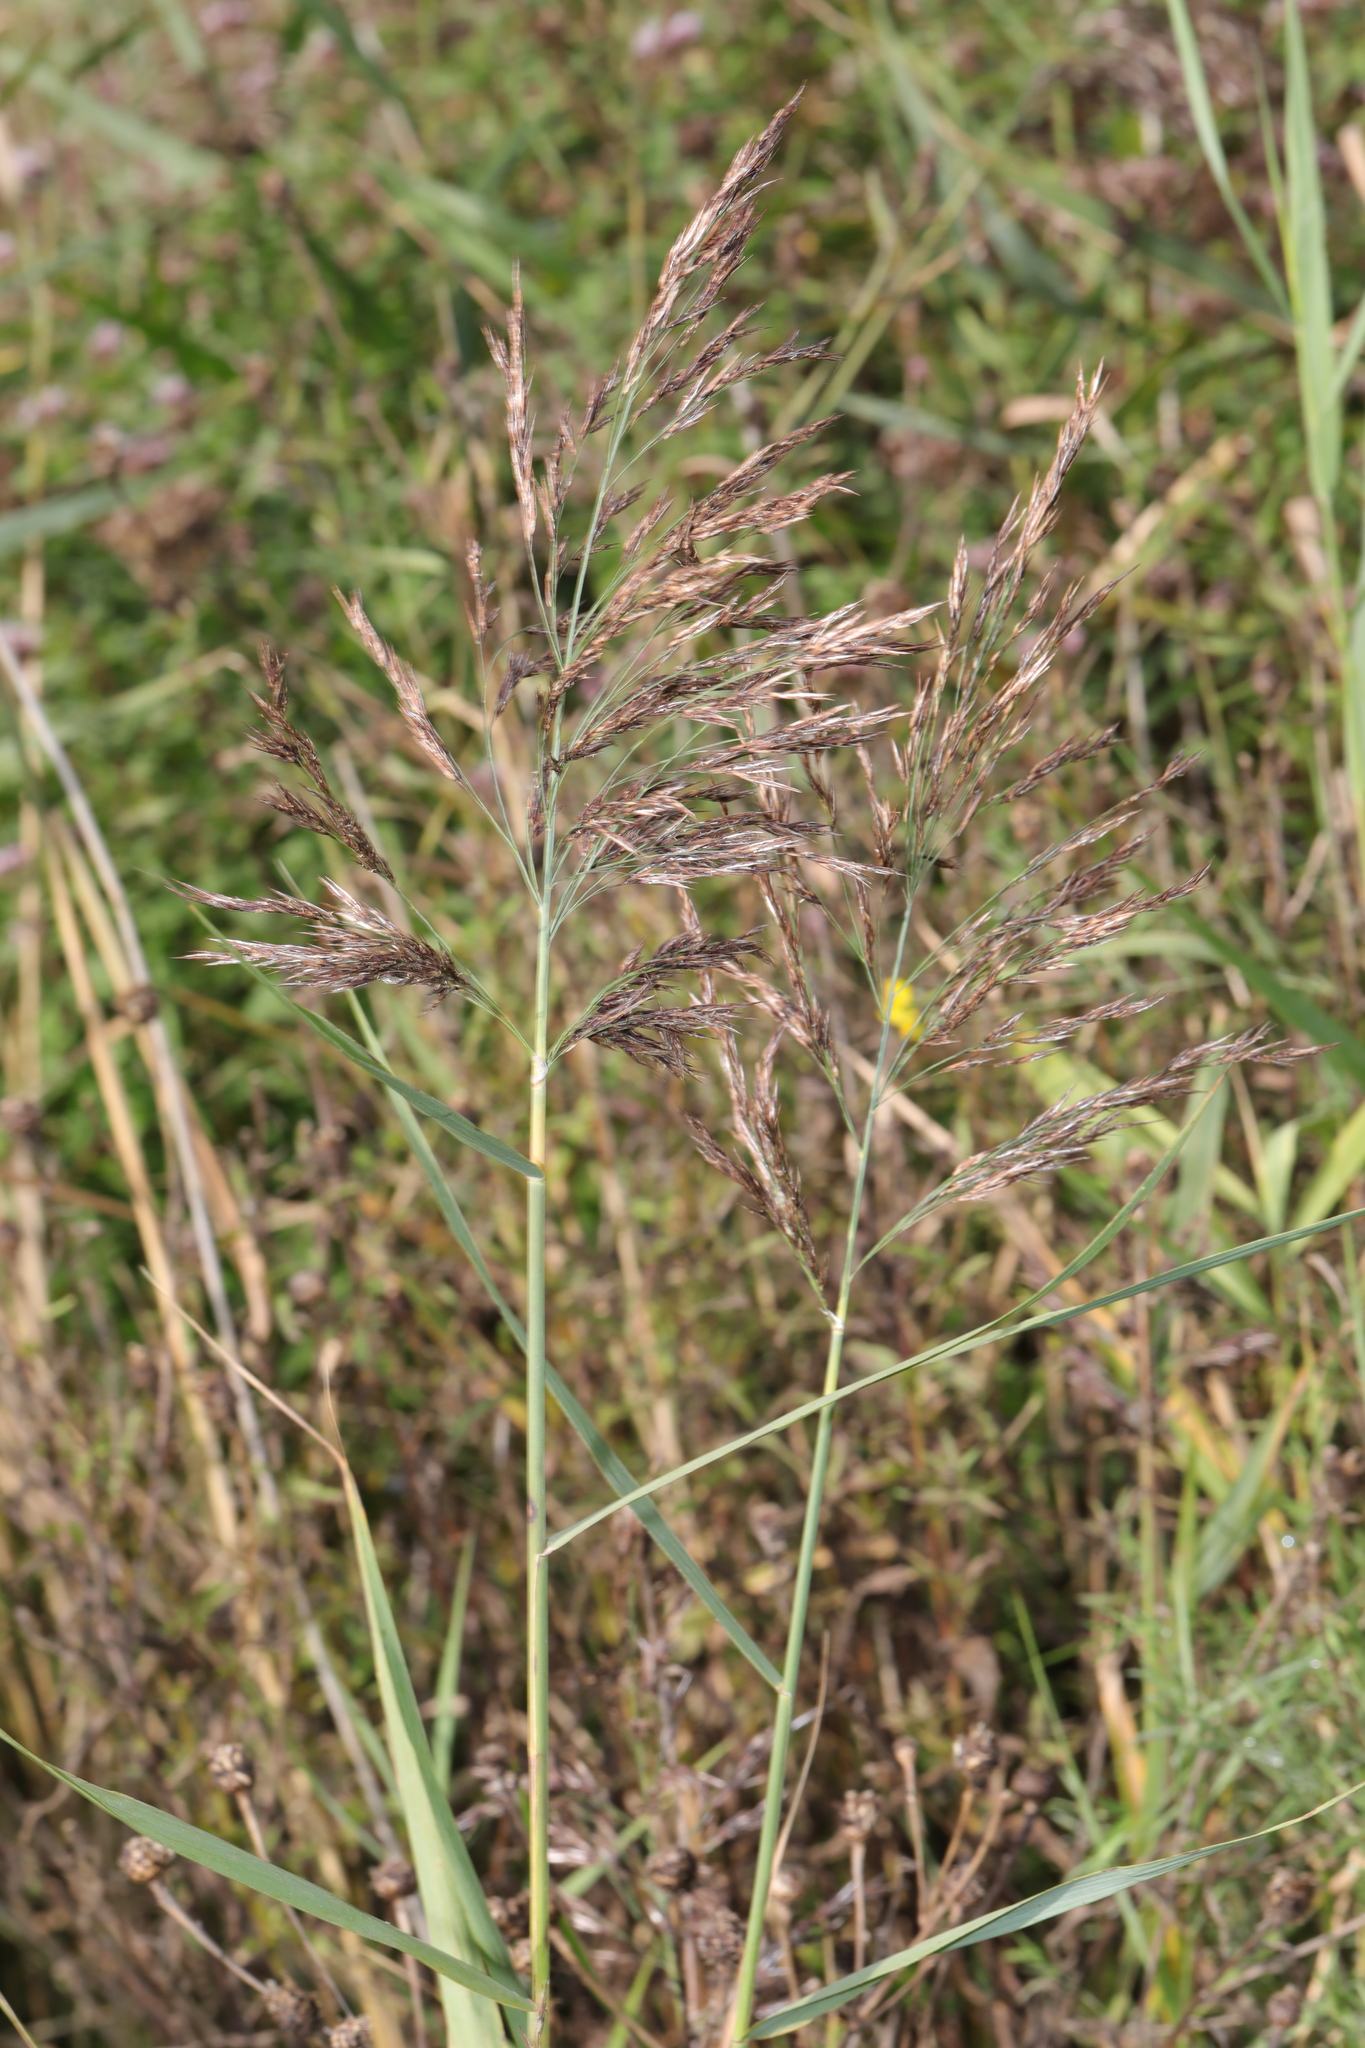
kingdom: Plantae
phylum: Tracheophyta
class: Liliopsida
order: Poales
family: Poaceae
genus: Phragmites
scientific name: Phragmites australis
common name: Common reed
